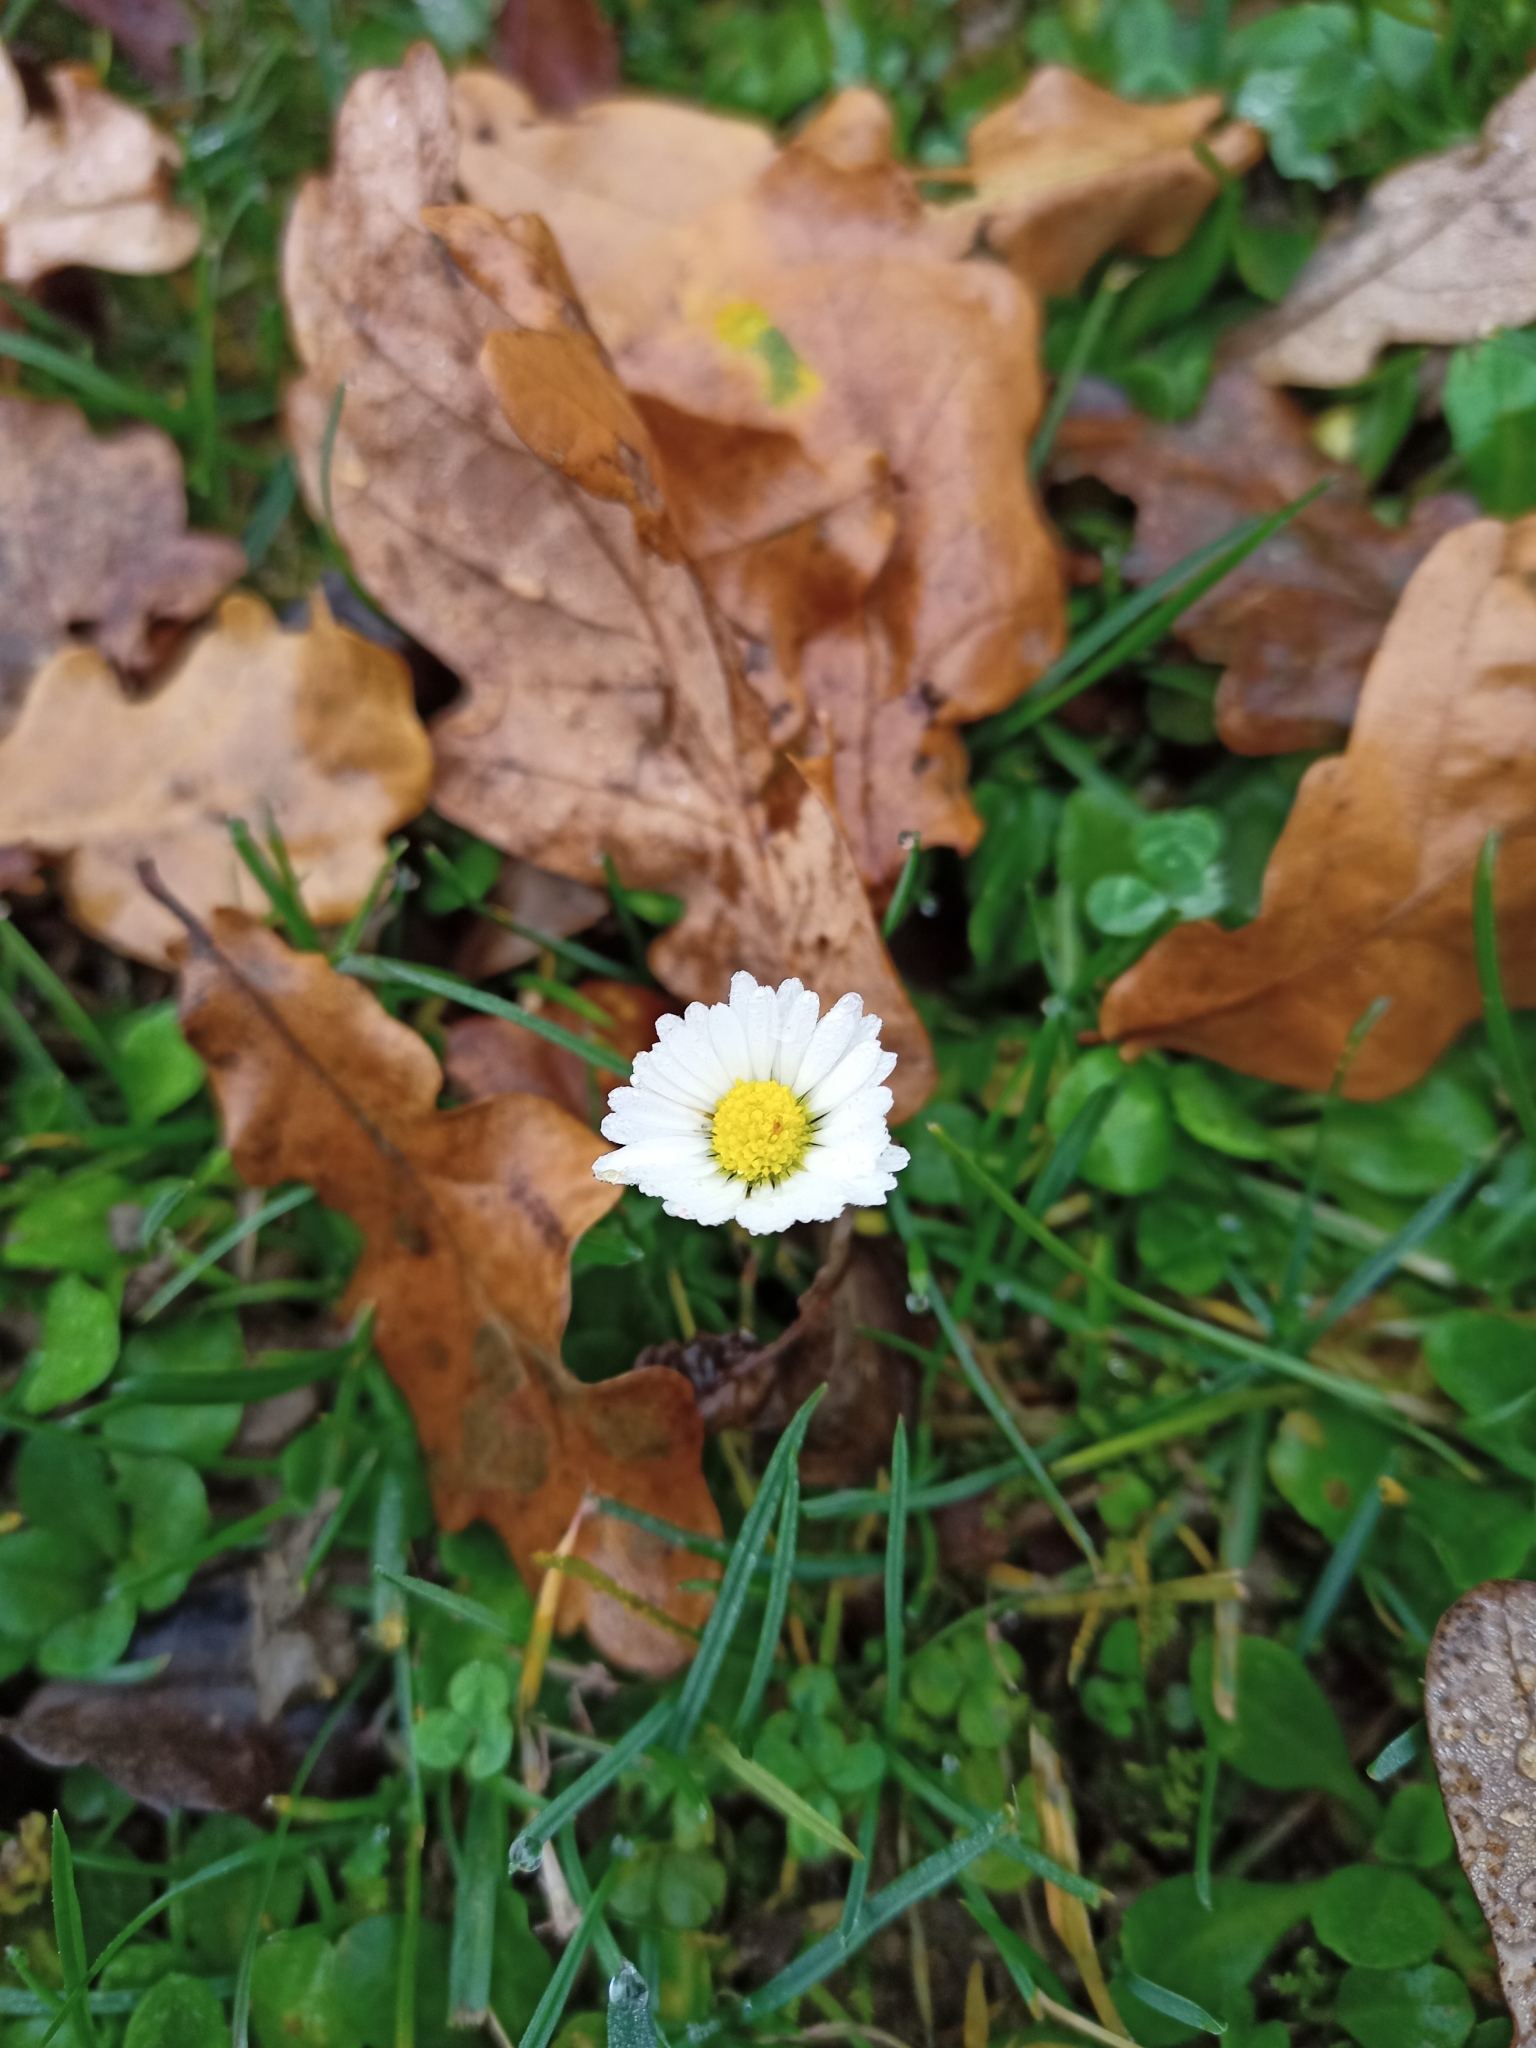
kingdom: Plantae
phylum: Tracheophyta
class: Magnoliopsida
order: Asterales
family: Asteraceae
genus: Bellis
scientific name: Bellis perennis
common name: Lawndaisy
